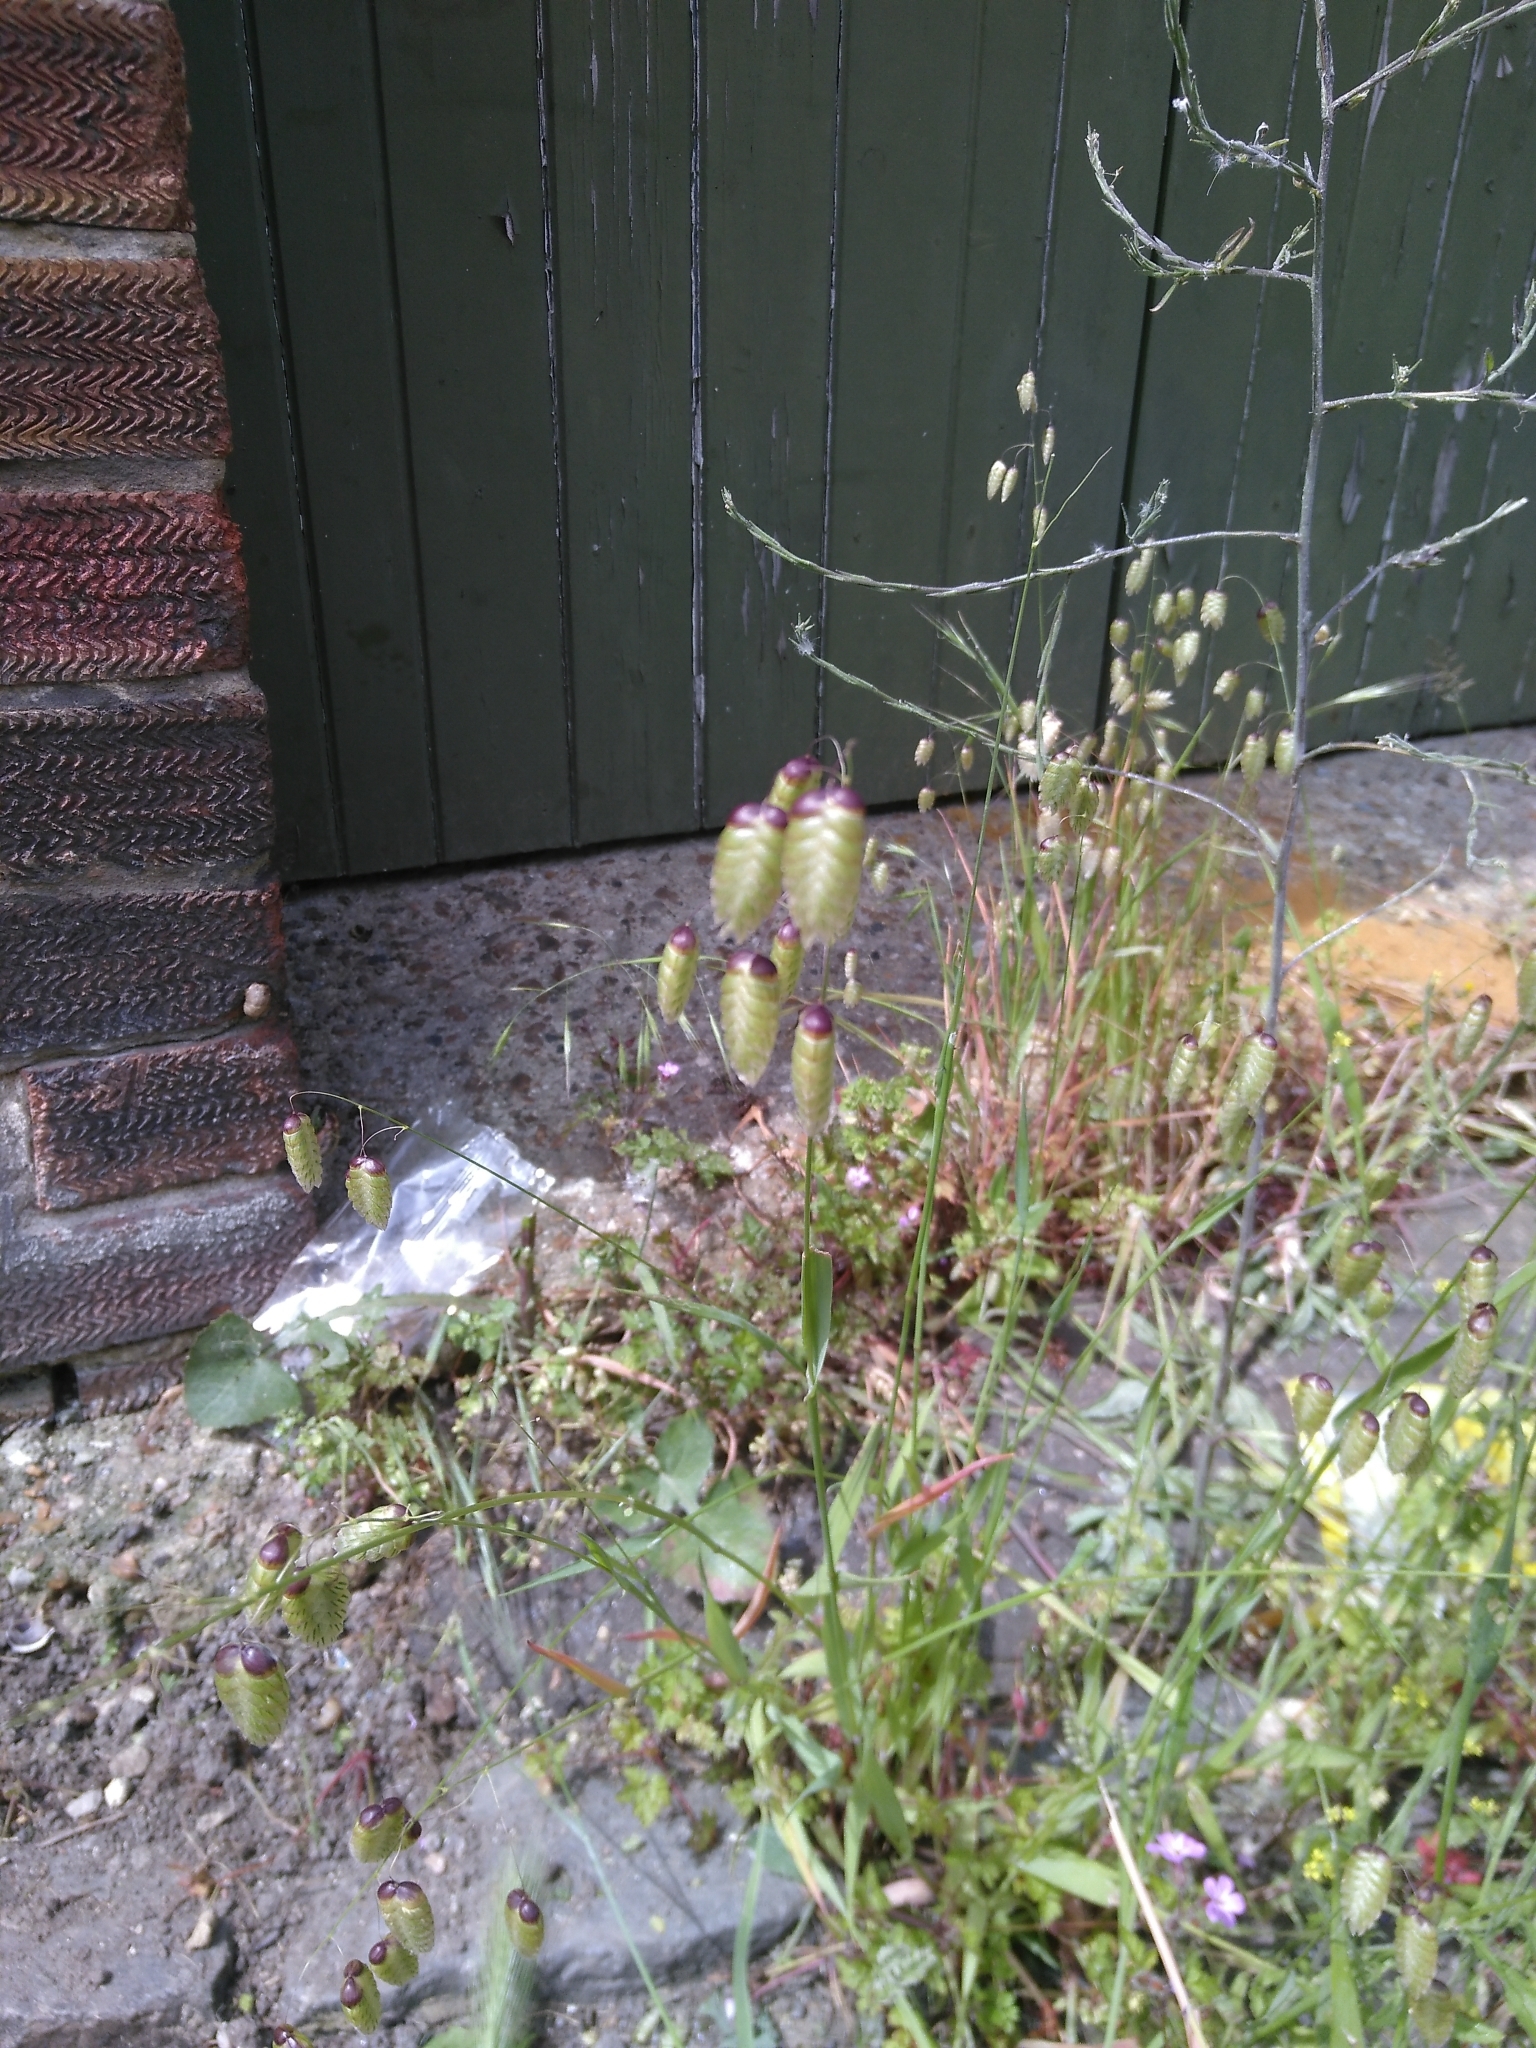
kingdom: Plantae
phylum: Tracheophyta
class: Liliopsida
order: Poales
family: Poaceae
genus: Briza
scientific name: Briza maxima
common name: Big quakinggrass
